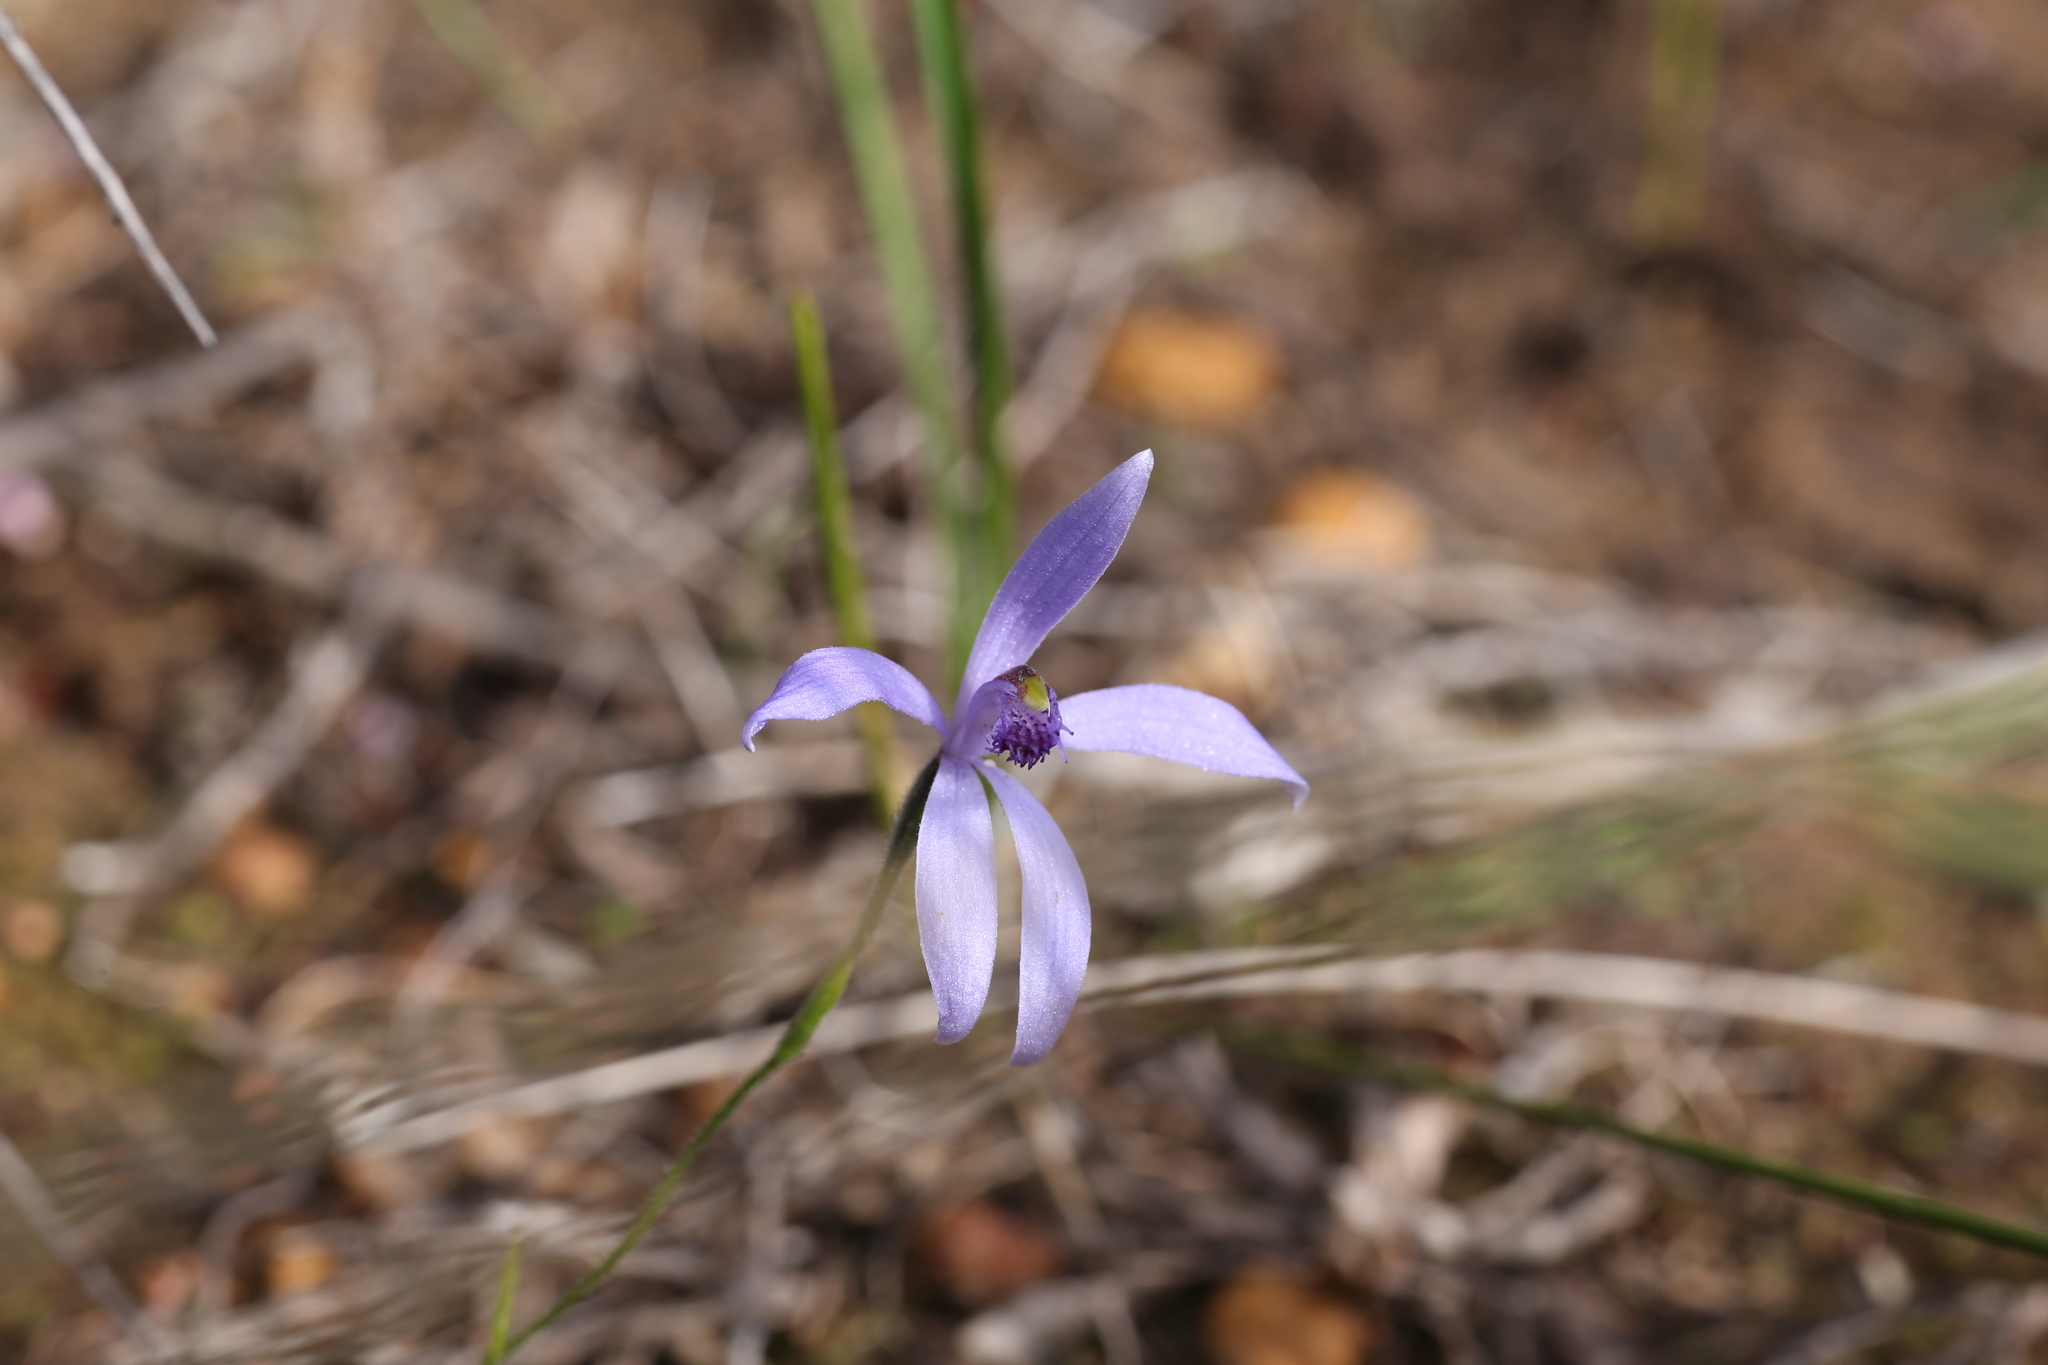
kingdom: Plantae
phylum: Tracheophyta
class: Liliopsida
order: Asparagales
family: Orchidaceae
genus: Pheladenia
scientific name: Pheladenia deformis
